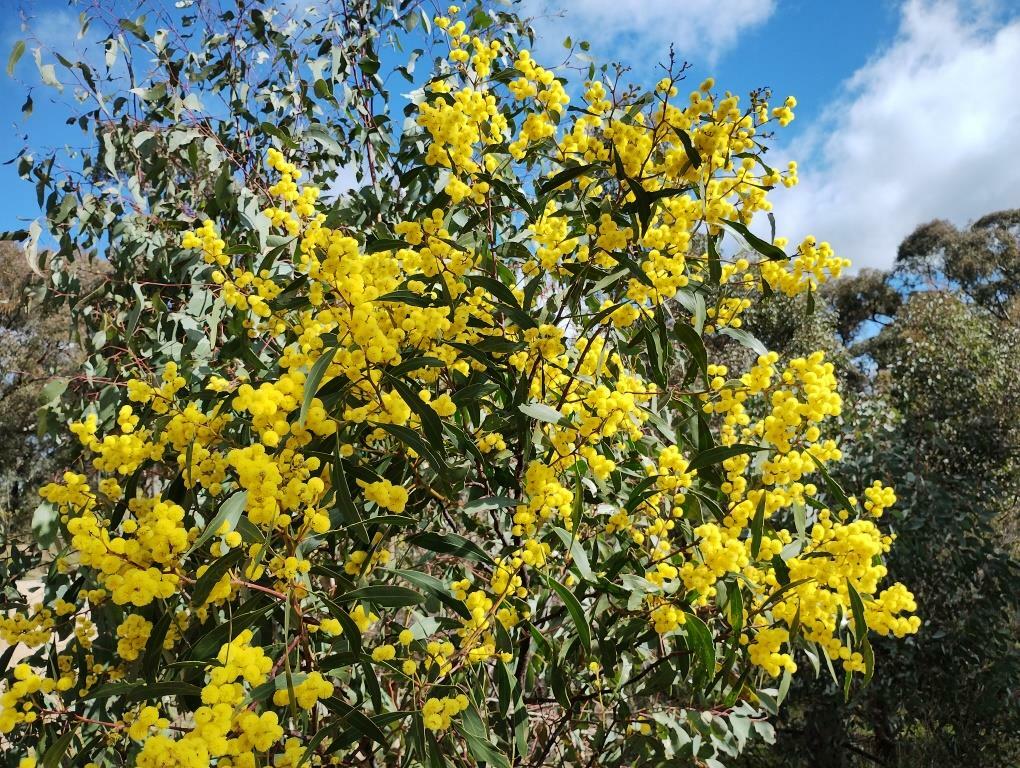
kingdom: Plantae
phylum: Tracheophyta
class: Magnoliopsida
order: Fabales
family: Fabaceae
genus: Acacia
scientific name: Acacia pycnantha
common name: Golden wattle
